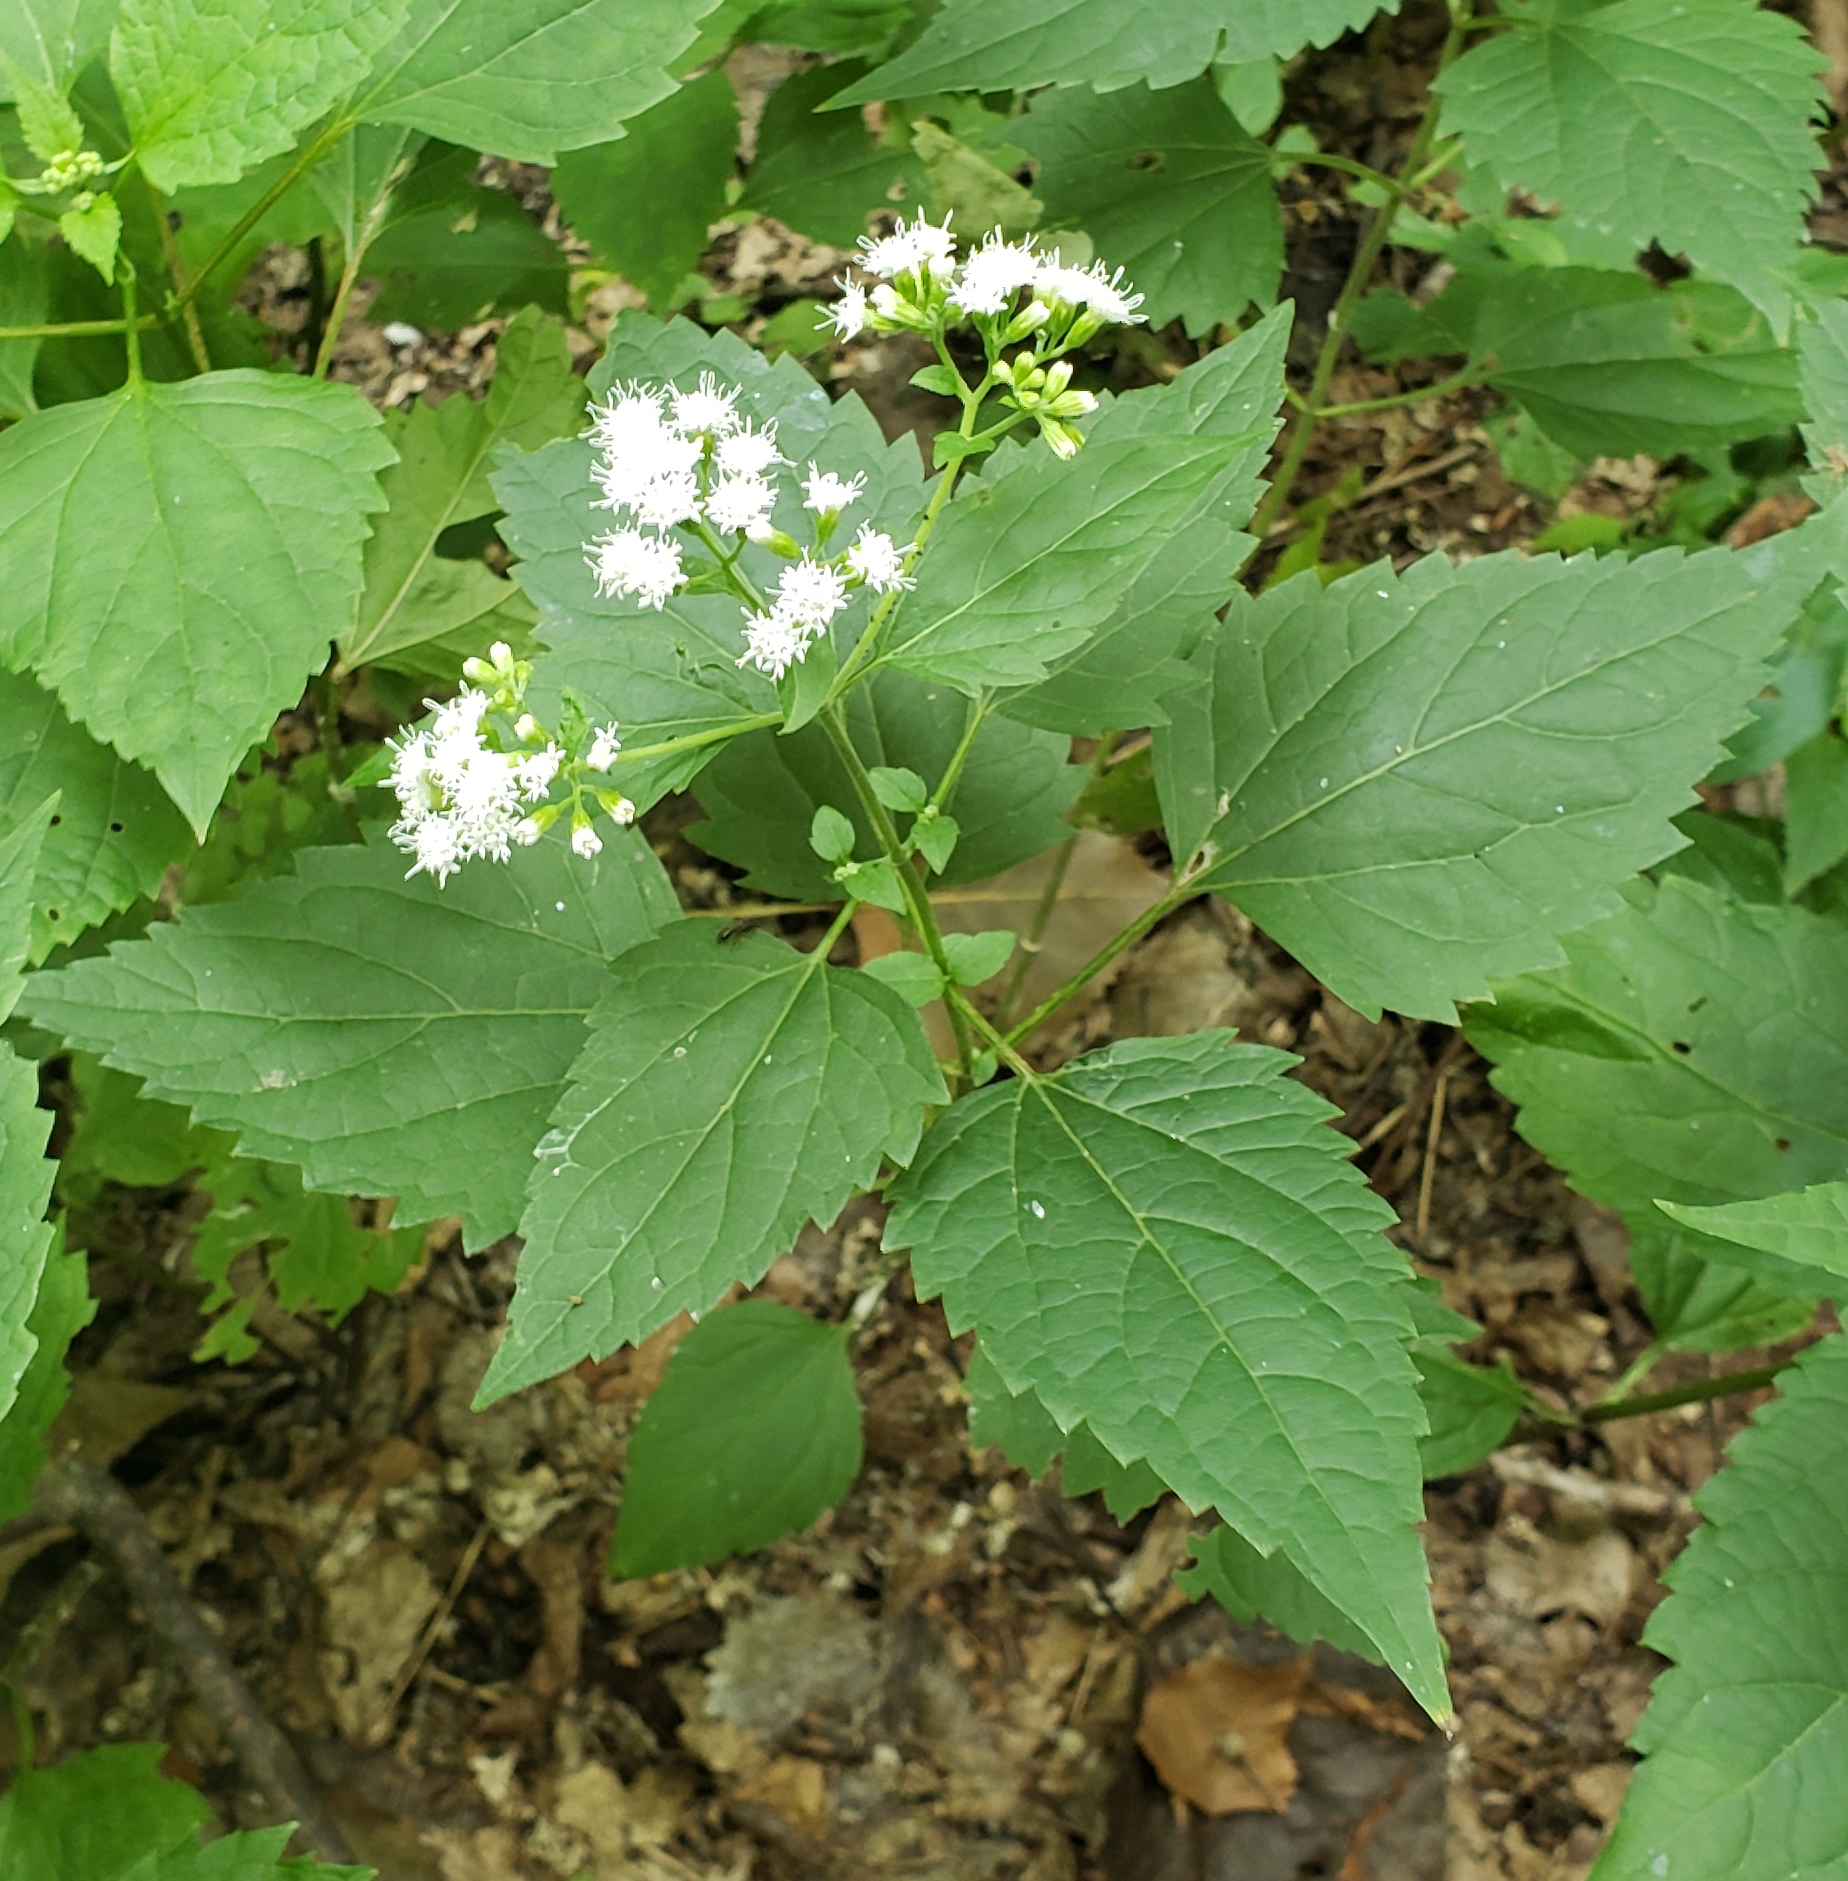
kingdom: Plantae
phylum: Tracheophyta
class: Magnoliopsida
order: Asterales
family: Asteraceae
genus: Ageratina
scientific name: Ageratina altissima
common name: White snakeroot
